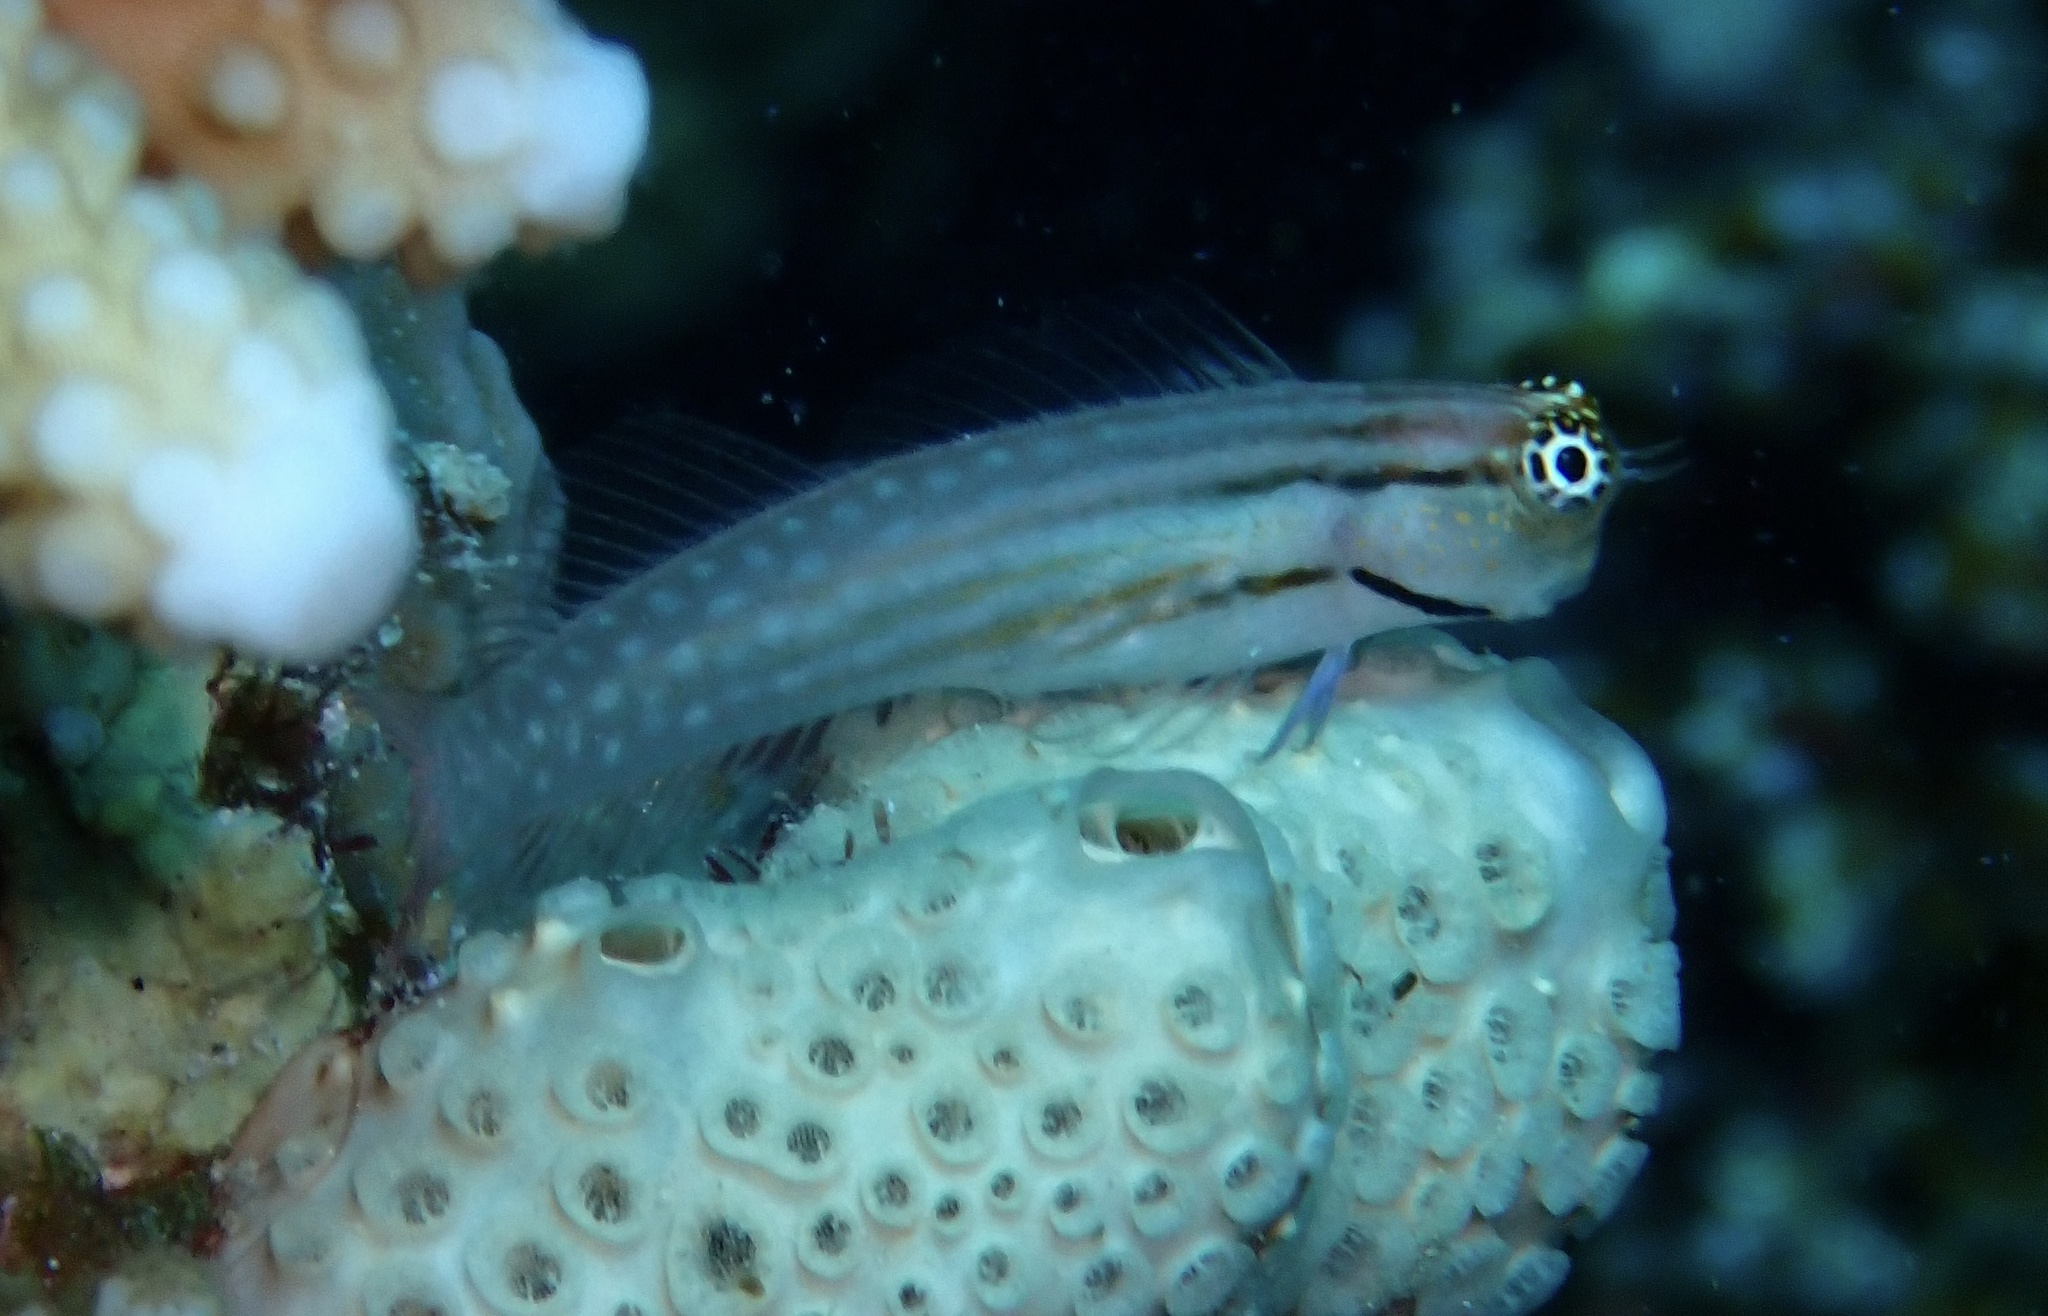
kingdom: Animalia
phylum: Chordata
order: Perciformes
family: Blenniidae
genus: Ecsenius
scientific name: Ecsenius dentex
